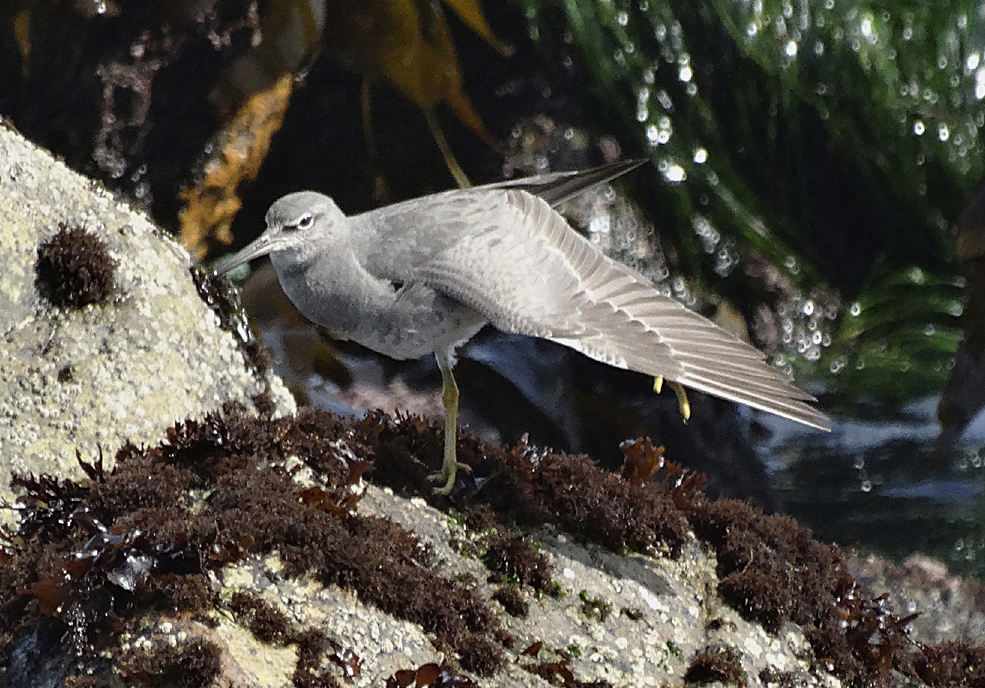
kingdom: Animalia
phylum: Chordata
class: Aves
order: Charadriiformes
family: Scolopacidae
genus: Tringa
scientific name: Tringa incana
